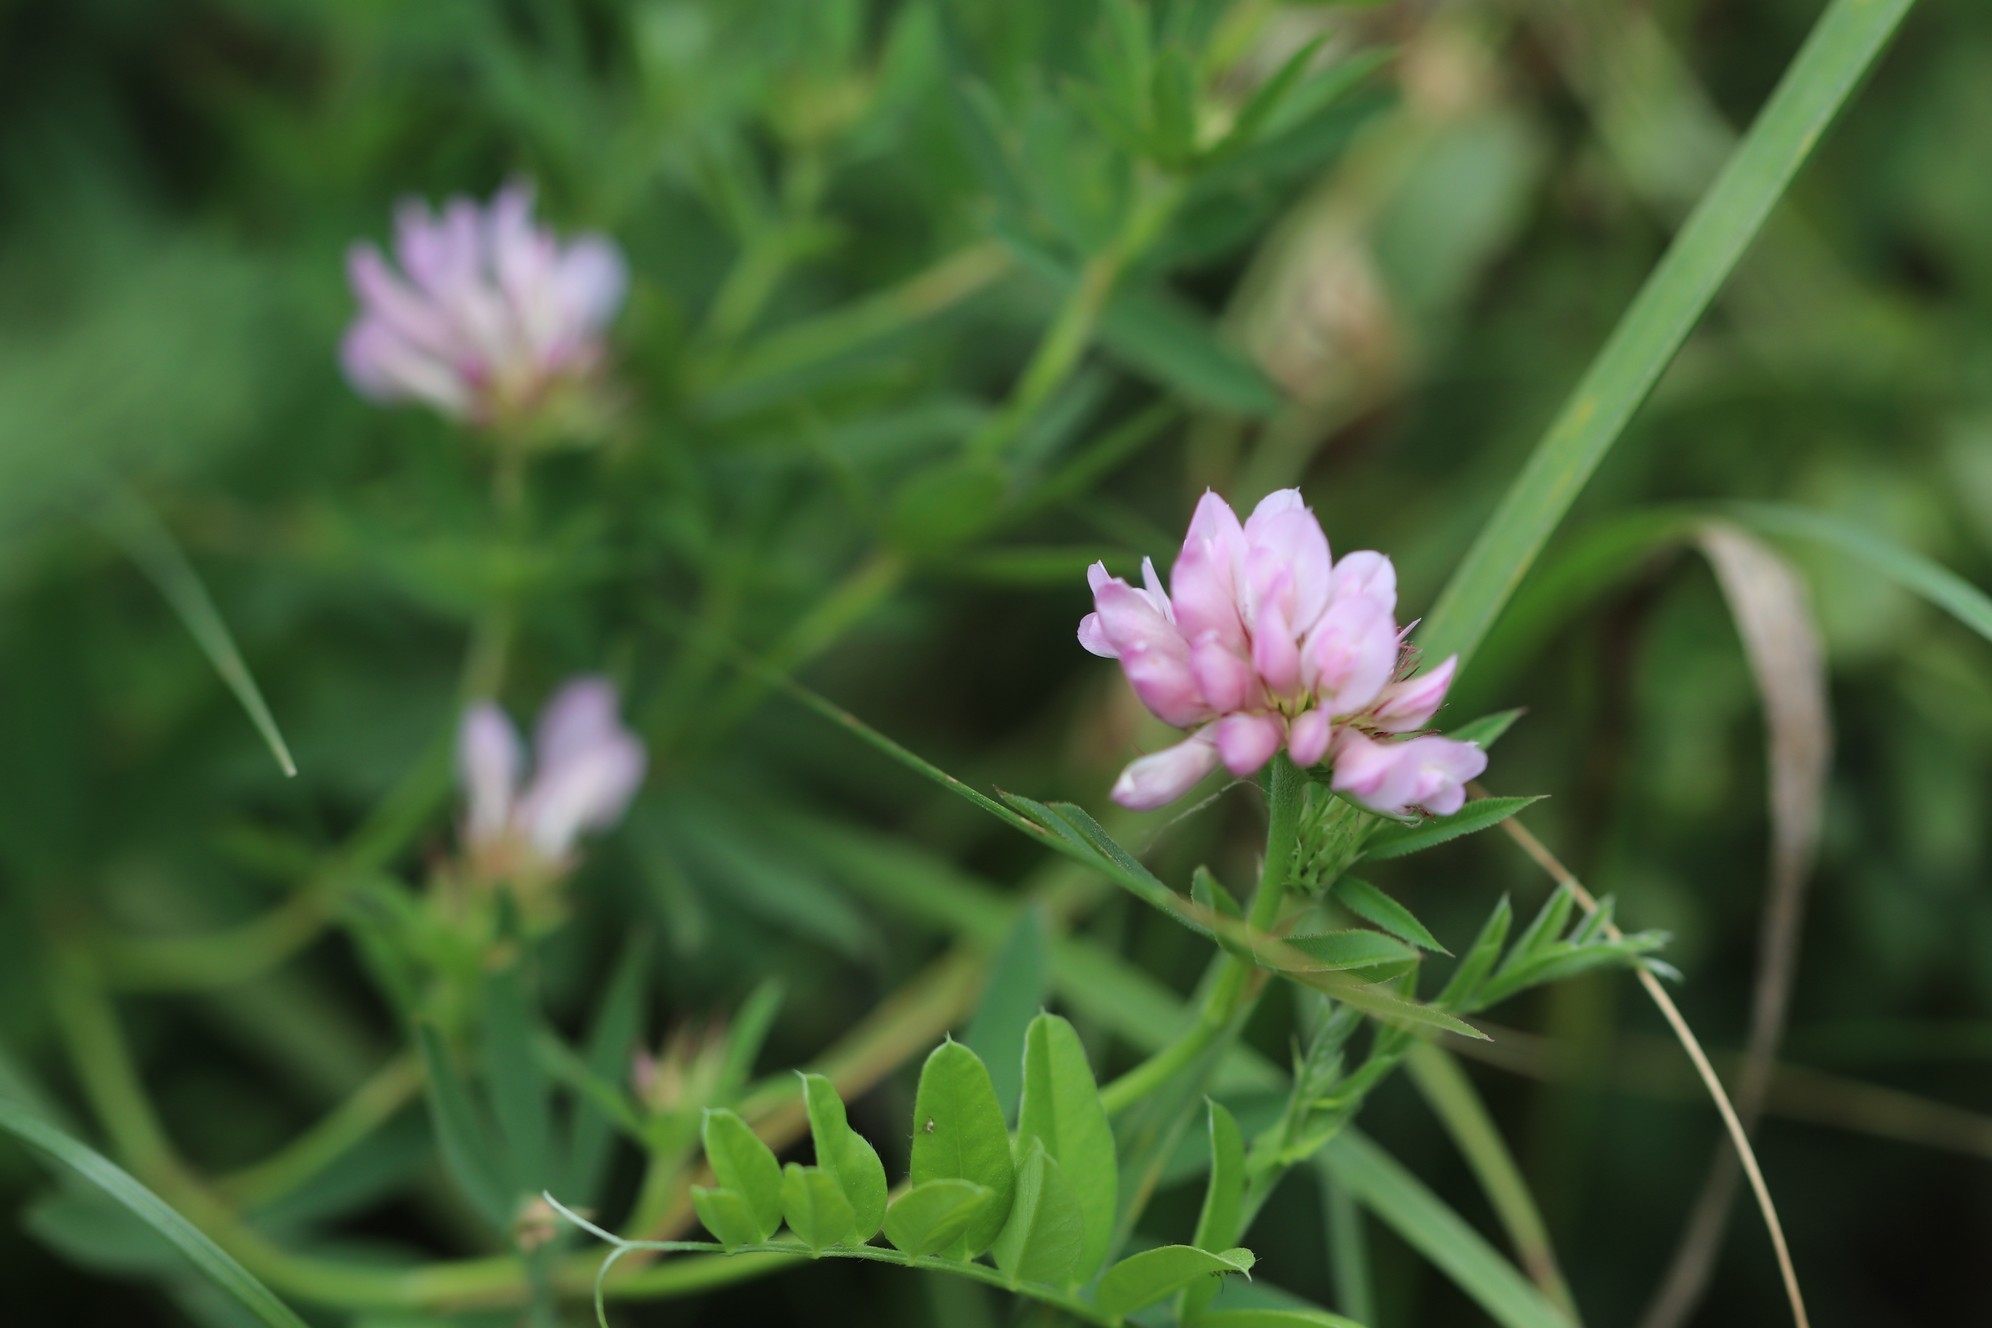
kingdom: Plantae
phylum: Tracheophyta
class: Magnoliopsida
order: Fabales
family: Fabaceae
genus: Trifolium
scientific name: Trifolium lupinaster
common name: Lupine clover
